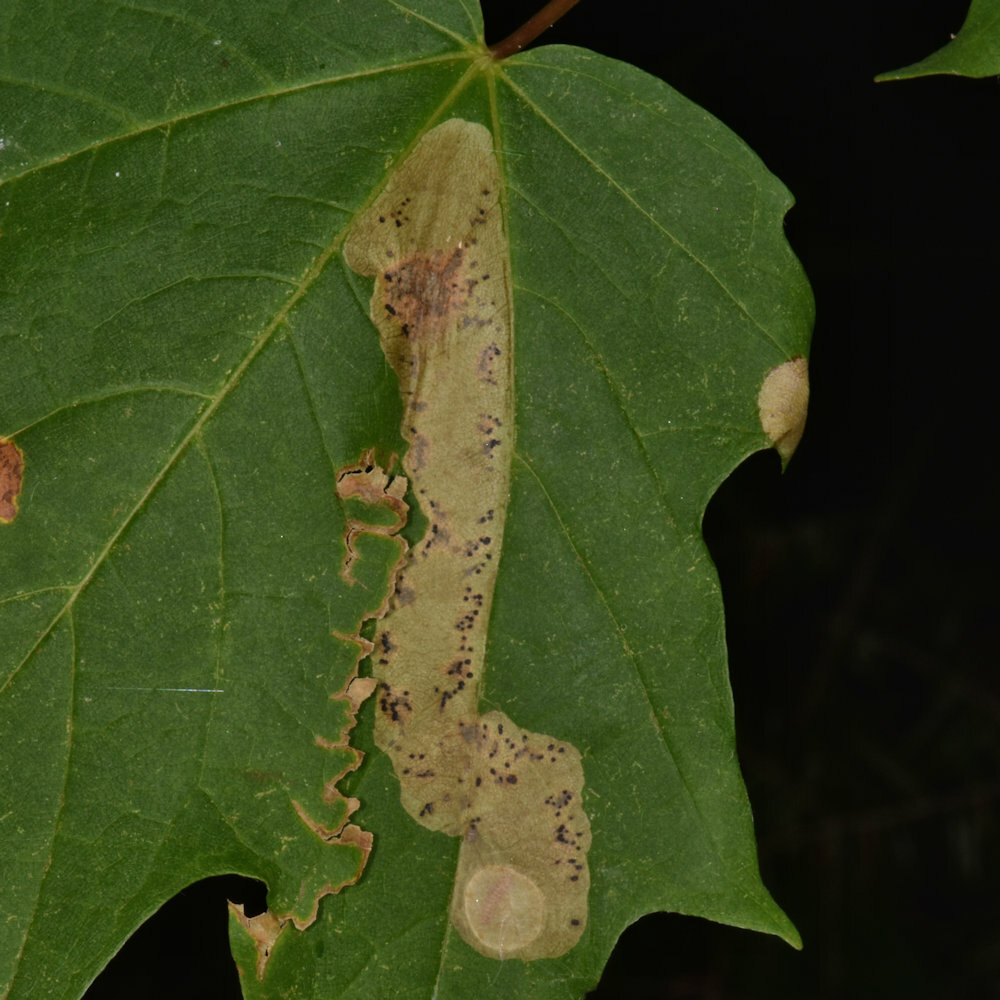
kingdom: Animalia
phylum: Arthropoda
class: Insecta
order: Lepidoptera
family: Gracillariidae
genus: Cameraria
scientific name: Cameraria aceriella
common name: Maple leafblotch miner
